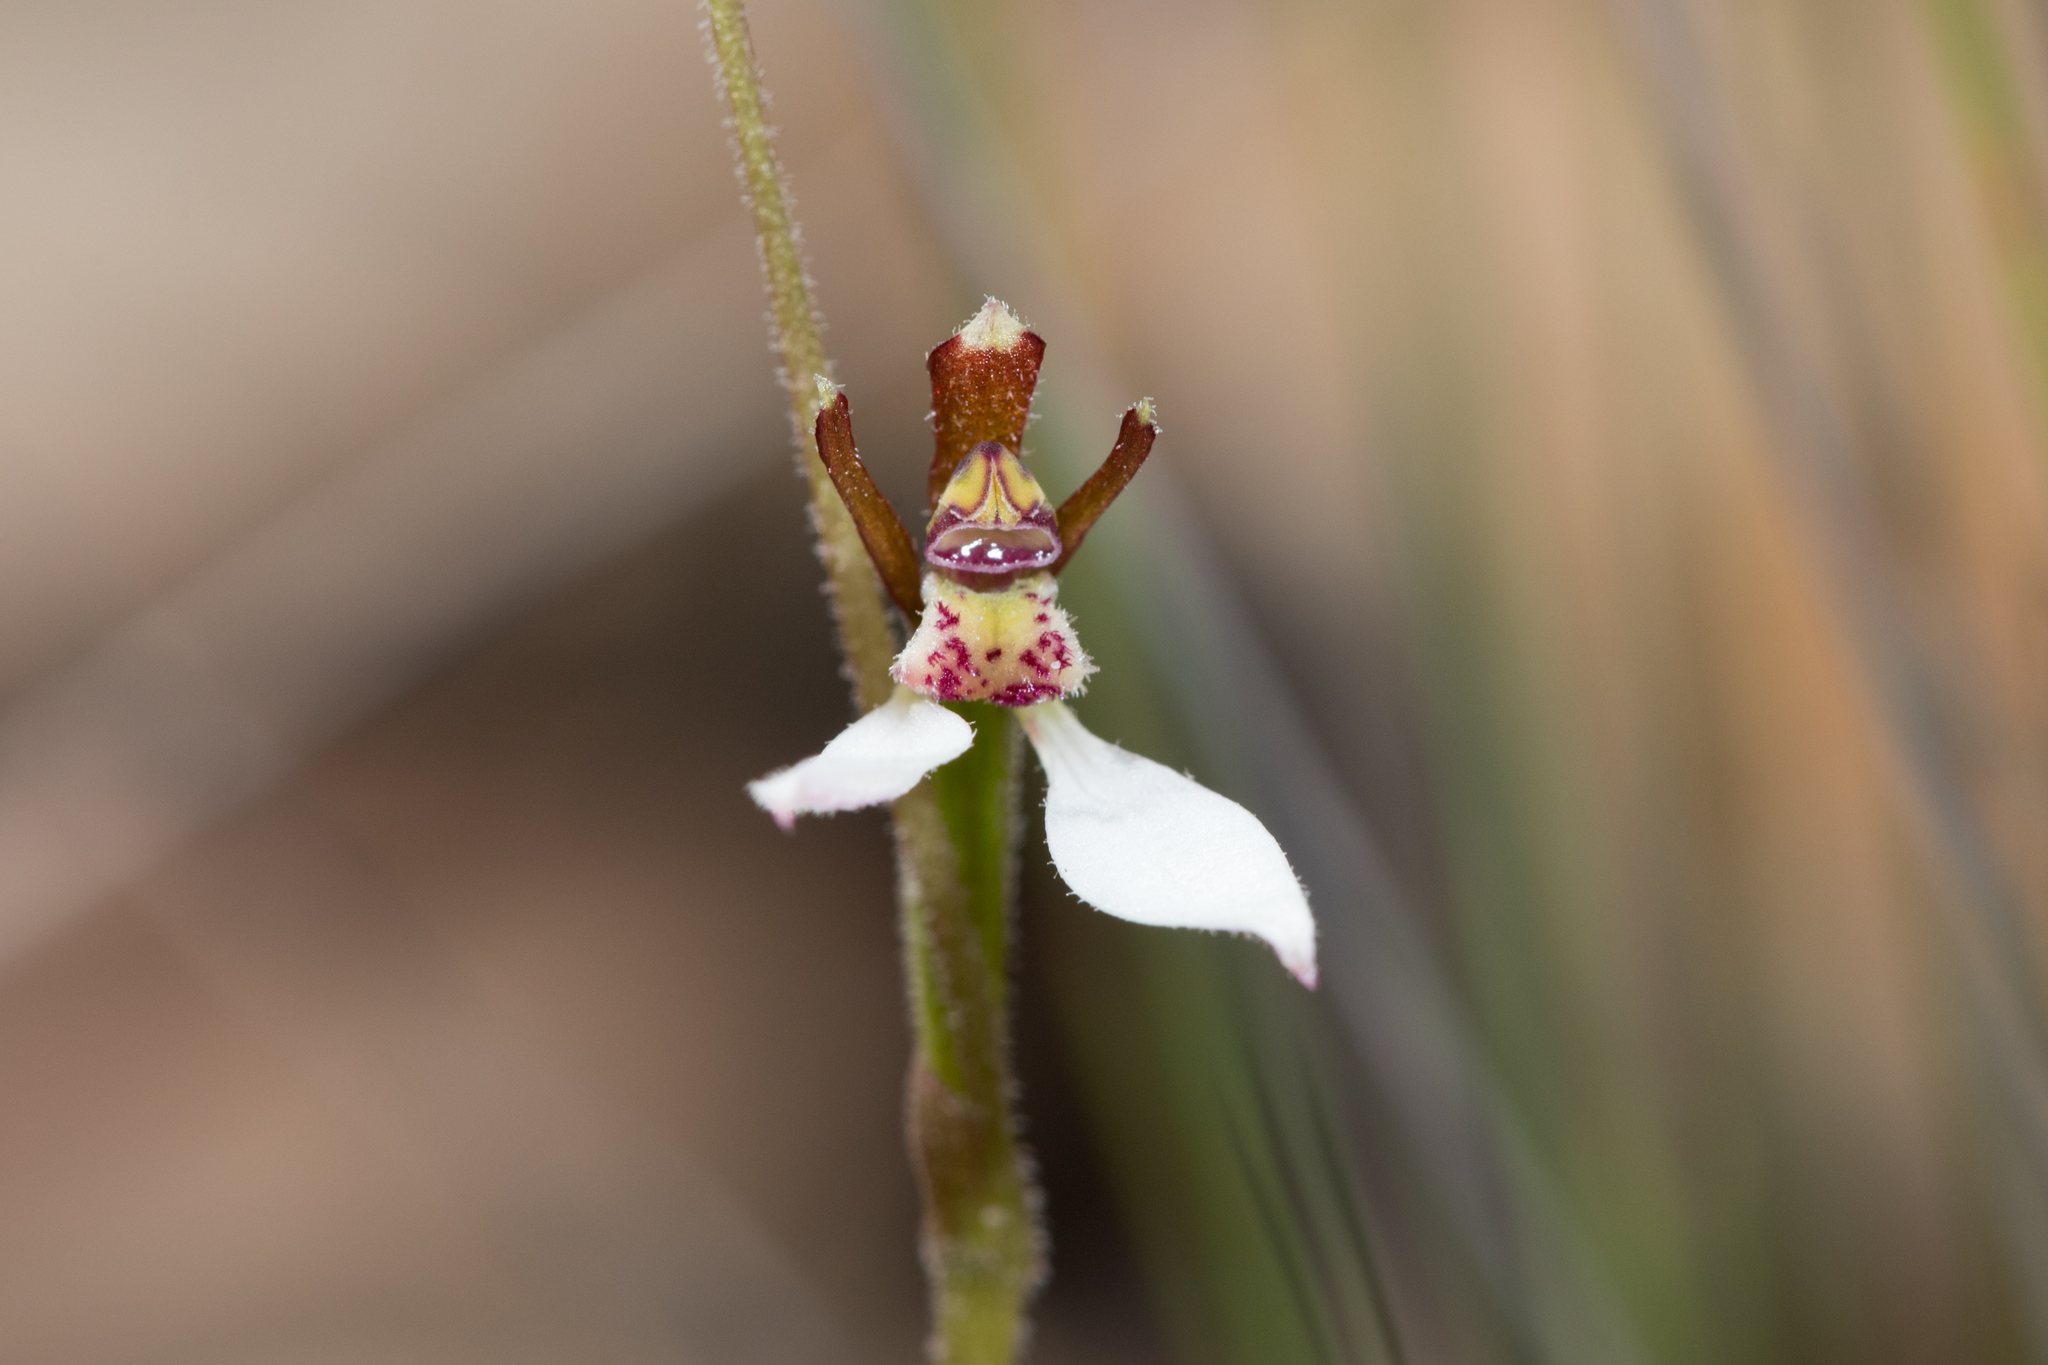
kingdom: Plantae
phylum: Tracheophyta
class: Liliopsida
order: Asparagales
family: Orchidaceae
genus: Eriochilus
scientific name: Eriochilus collinus
